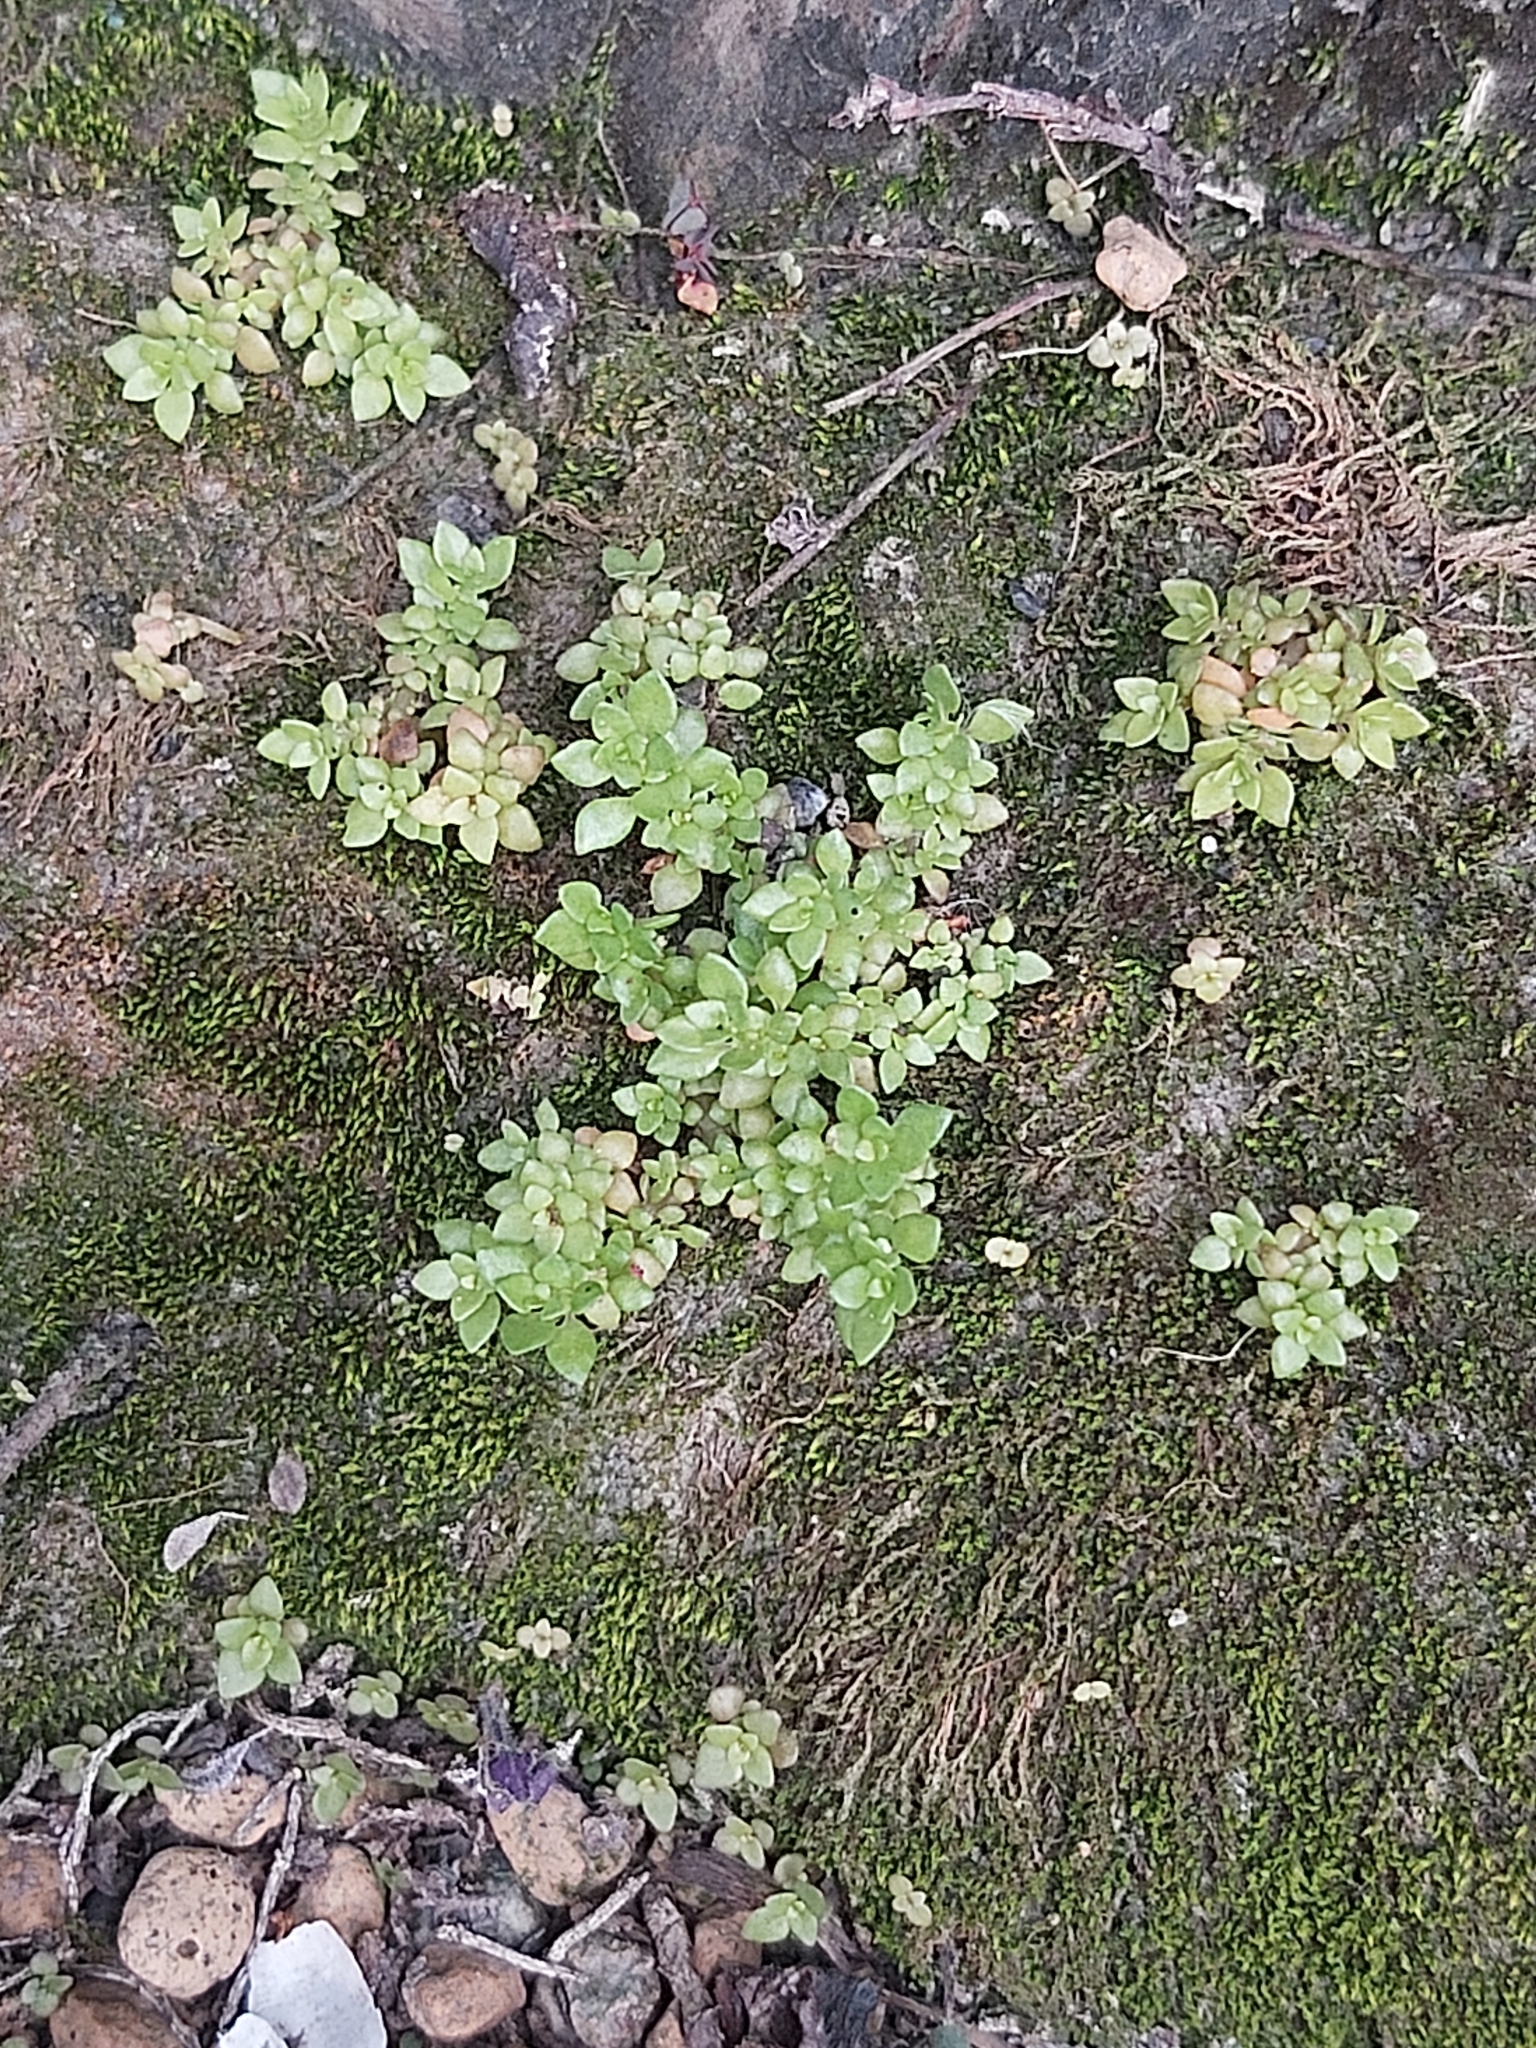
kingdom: Plantae
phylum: Tracheophyta
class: Magnoliopsida
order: Rosales
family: Urticaceae
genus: Pilea
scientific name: Pilea microphylla
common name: Artillery-plant
